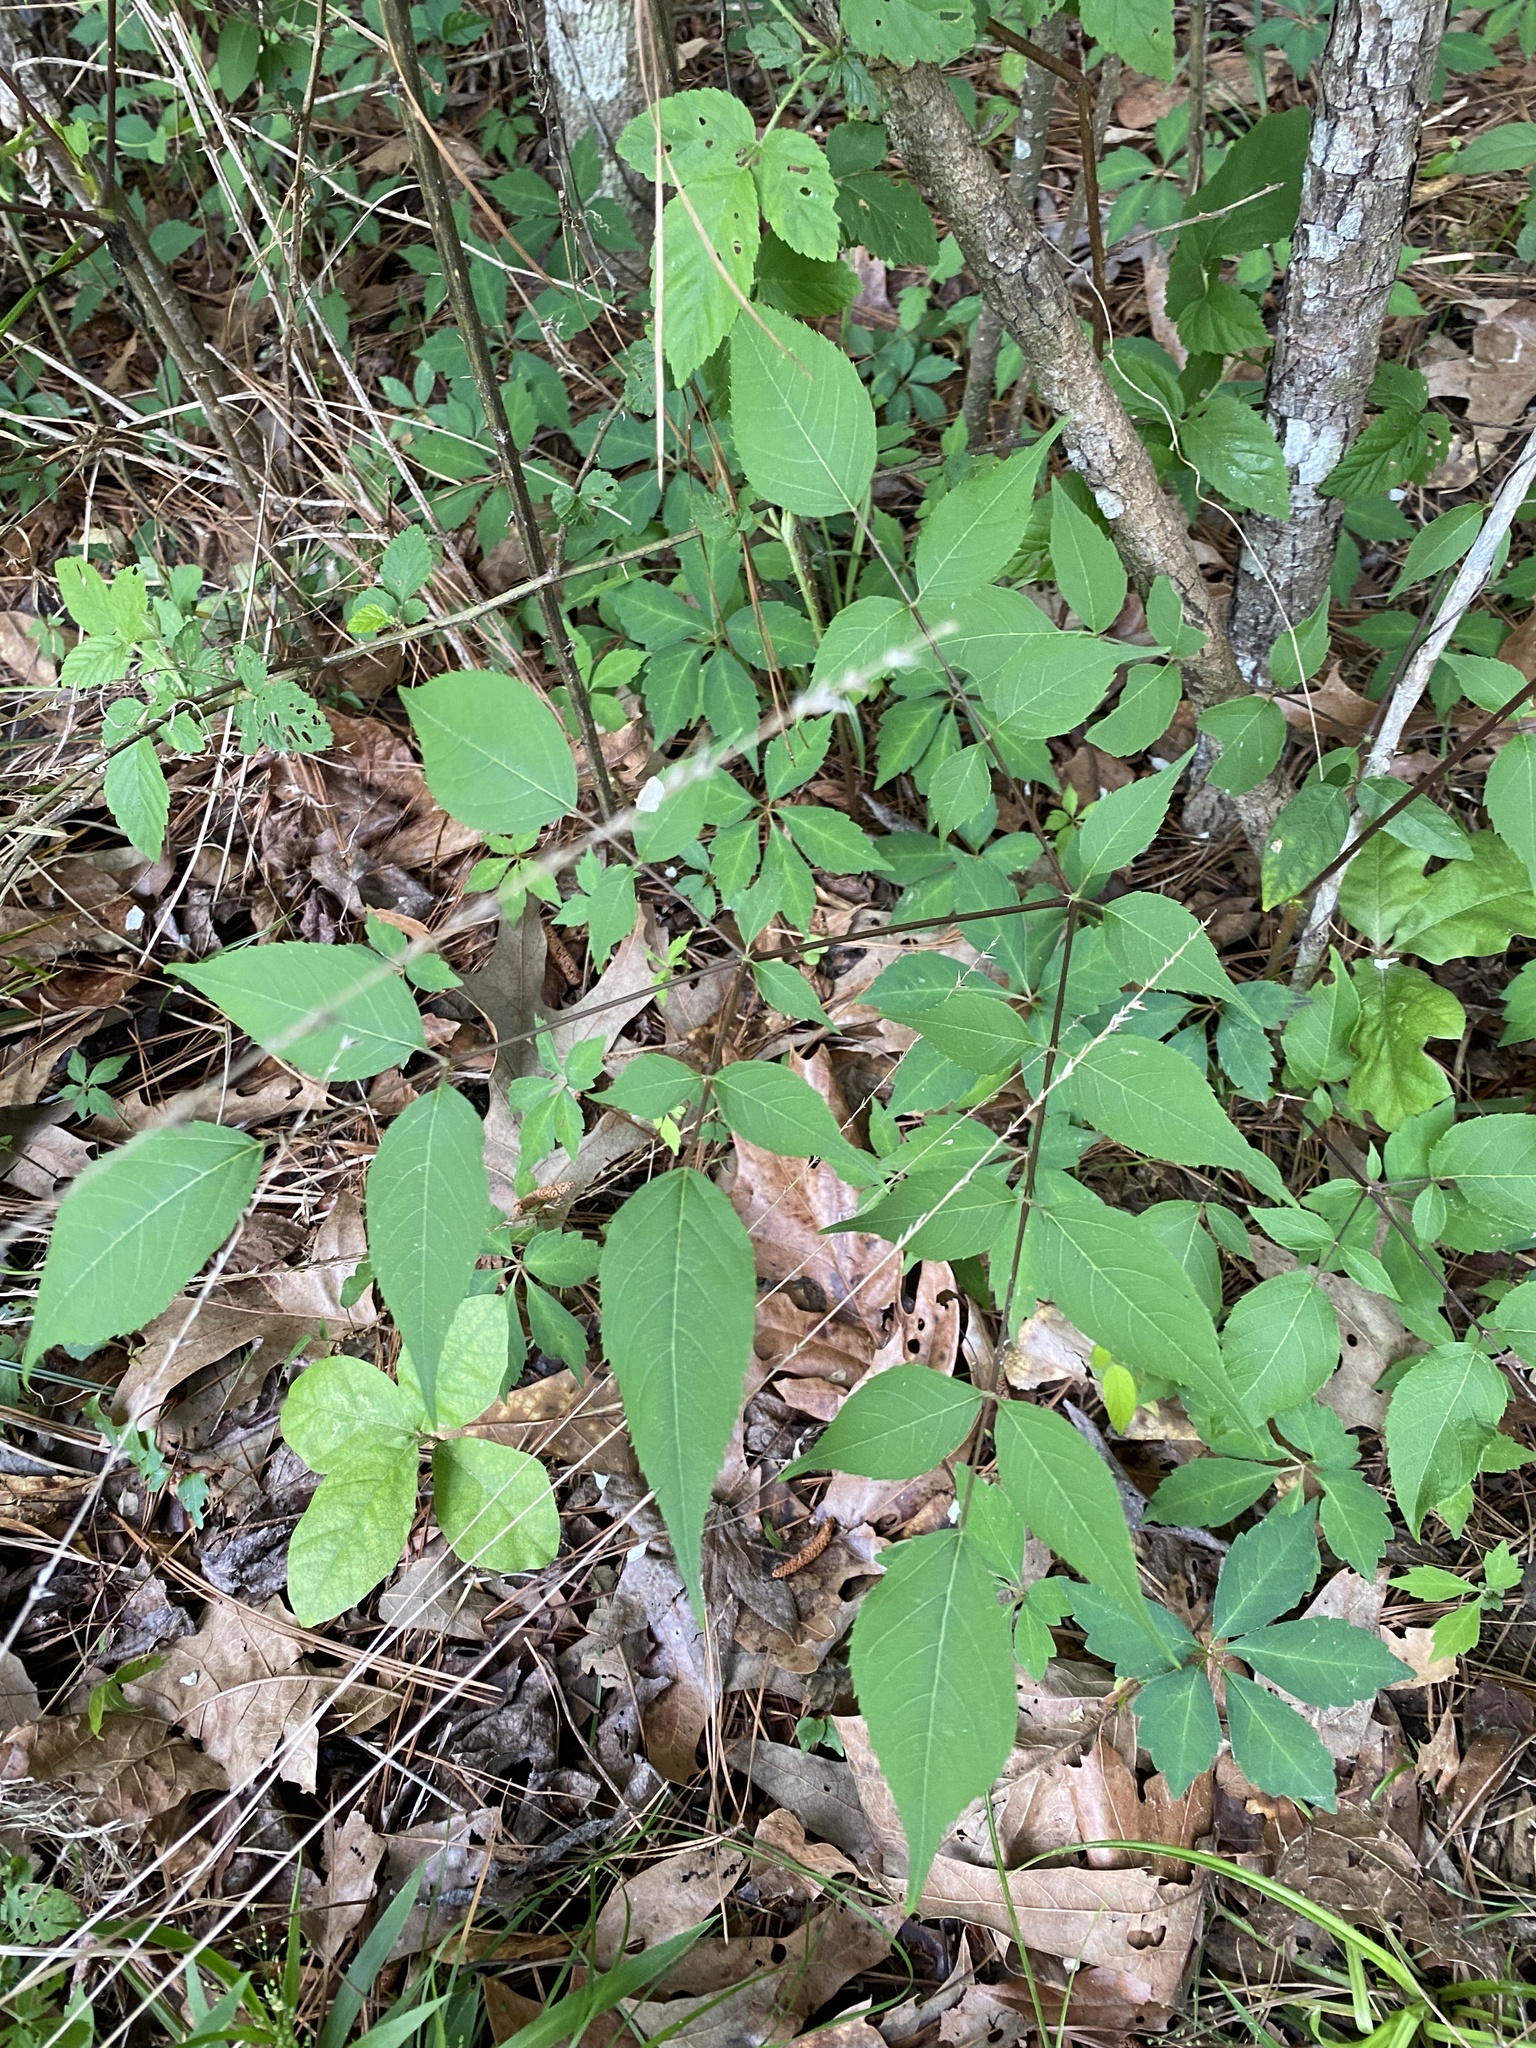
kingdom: Plantae
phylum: Tracheophyta
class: Magnoliopsida
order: Apiales
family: Araliaceae
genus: Aralia
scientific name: Aralia spinosa
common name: Hercules'-club
